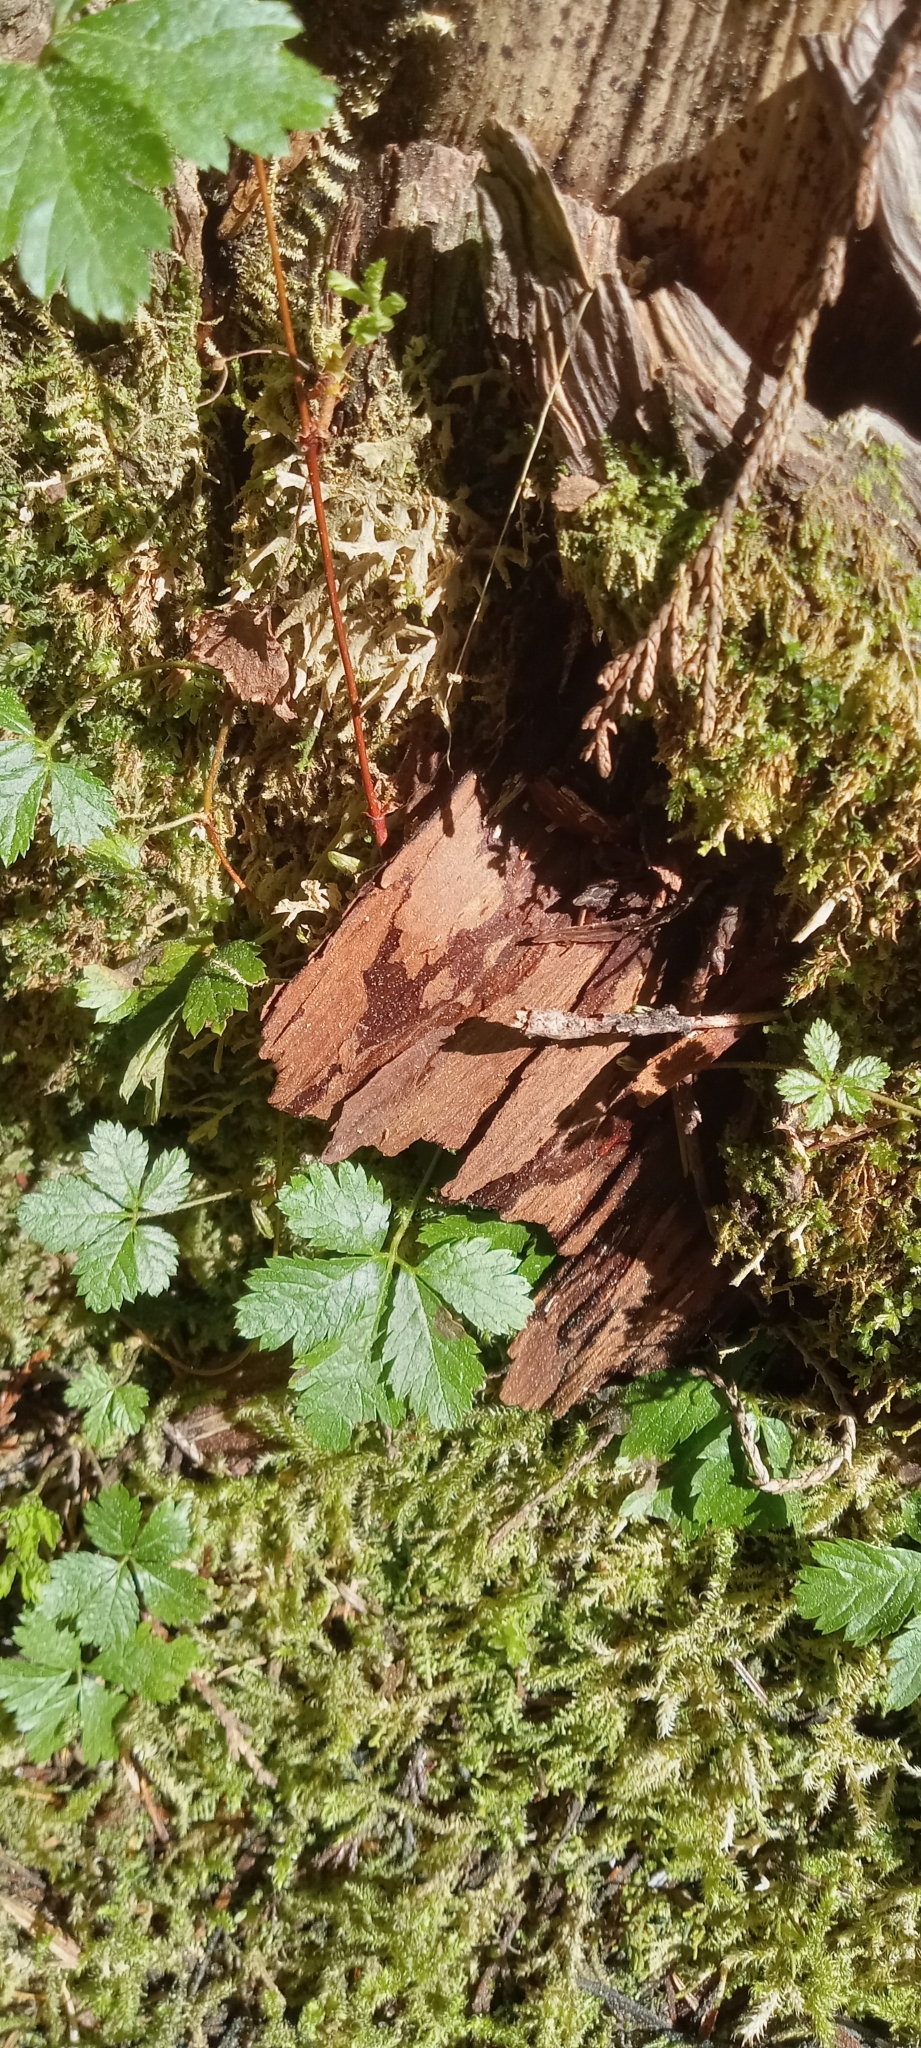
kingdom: Plantae
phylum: Tracheophyta
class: Magnoliopsida
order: Rosales
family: Rosaceae
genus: Rubus
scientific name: Rubus pedatus
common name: Creeping raspberry
